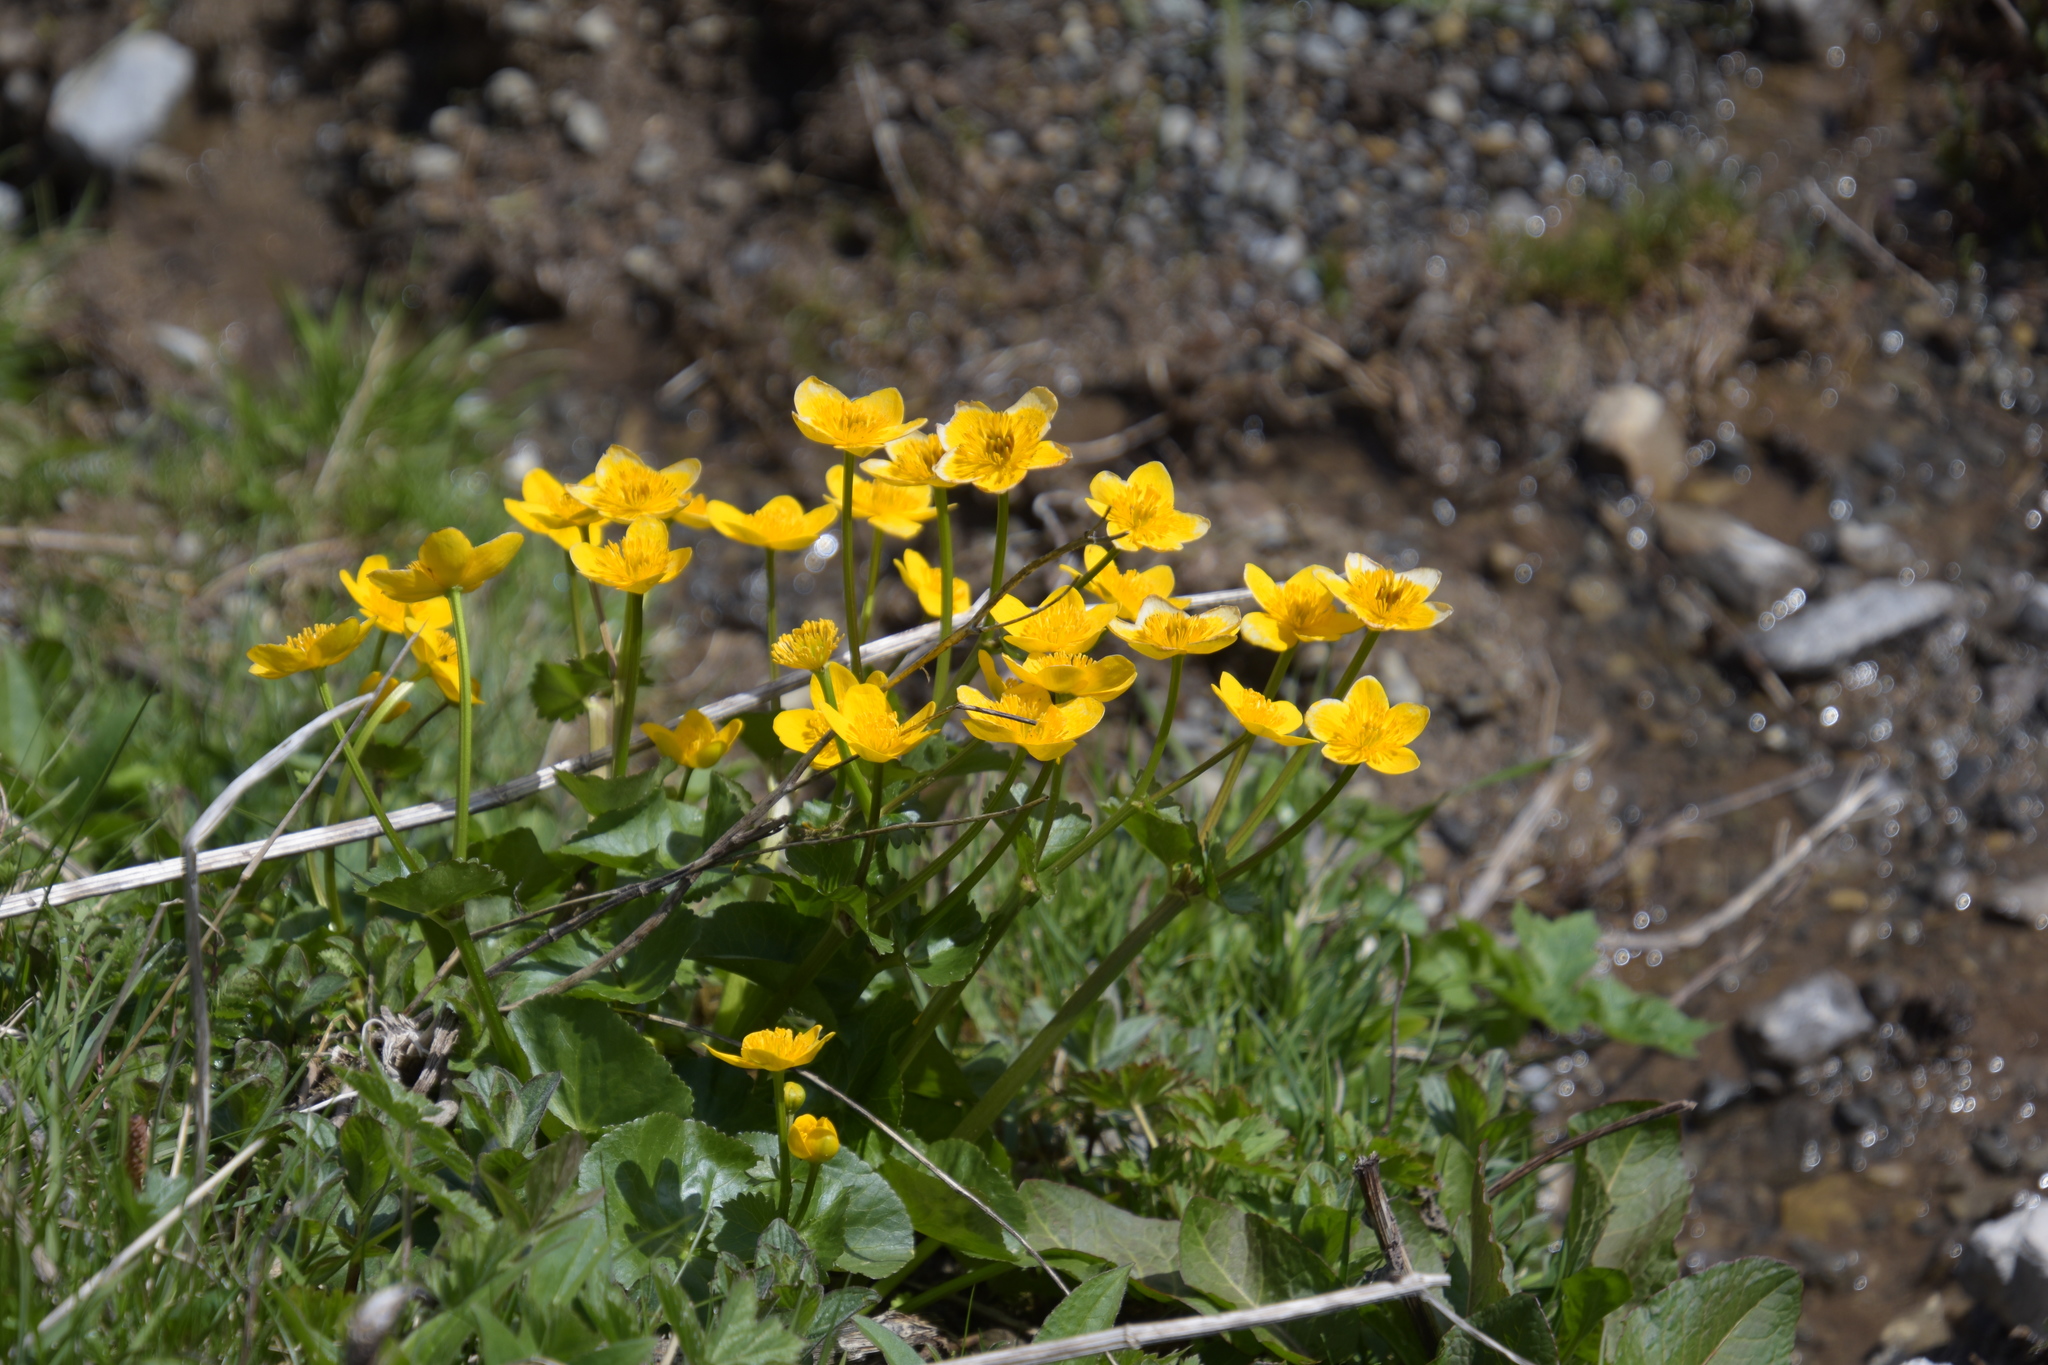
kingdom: Plantae
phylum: Tracheophyta
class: Magnoliopsida
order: Ranunculales
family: Ranunculaceae
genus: Caltha
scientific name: Caltha palustris
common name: Marsh marigold
